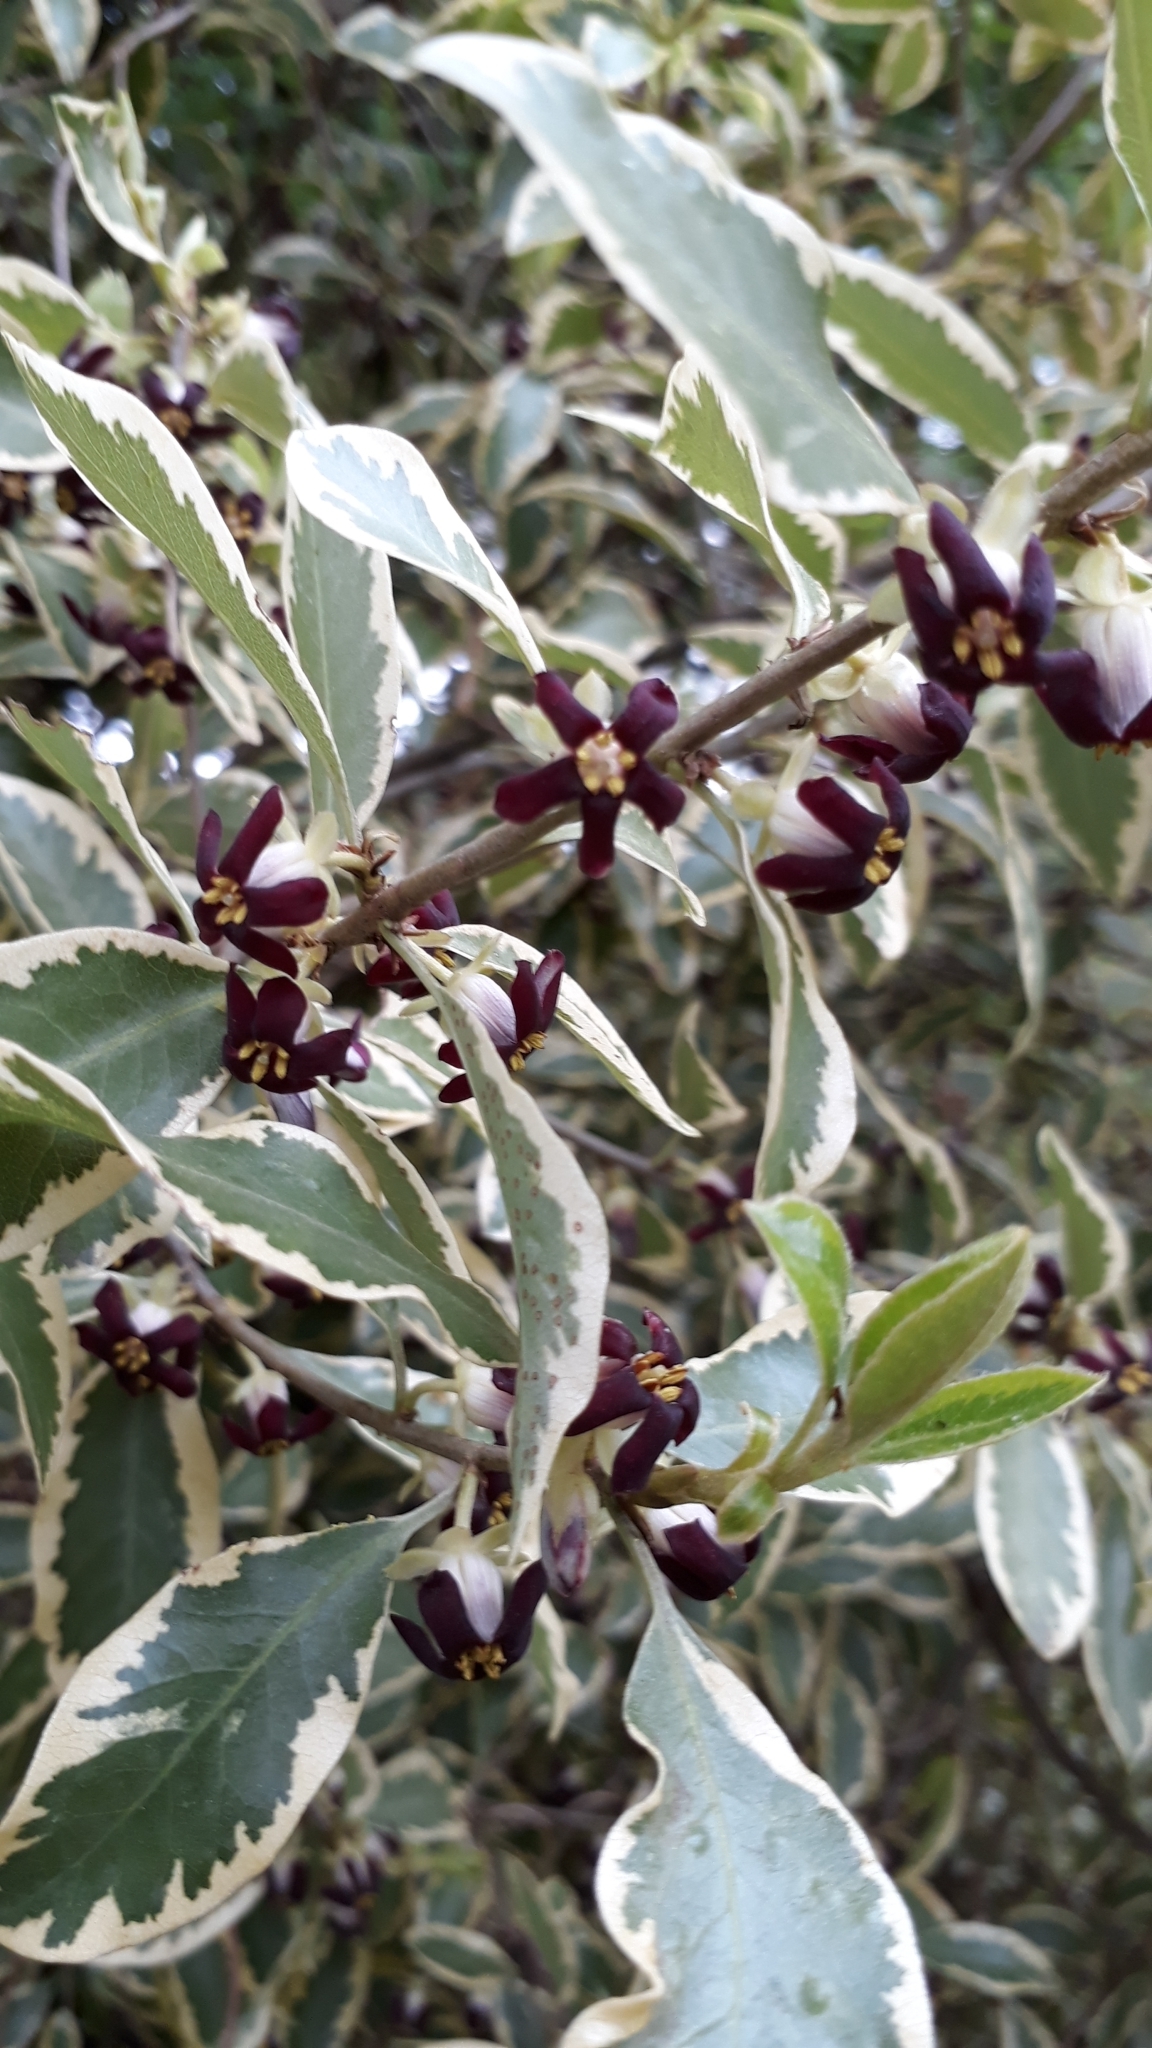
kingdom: Plantae
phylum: Tracheophyta
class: Magnoliopsida
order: Apiales
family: Pittosporaceae
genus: Pittosporum
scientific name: Pittosporum tenuifolium
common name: Kohuhu
